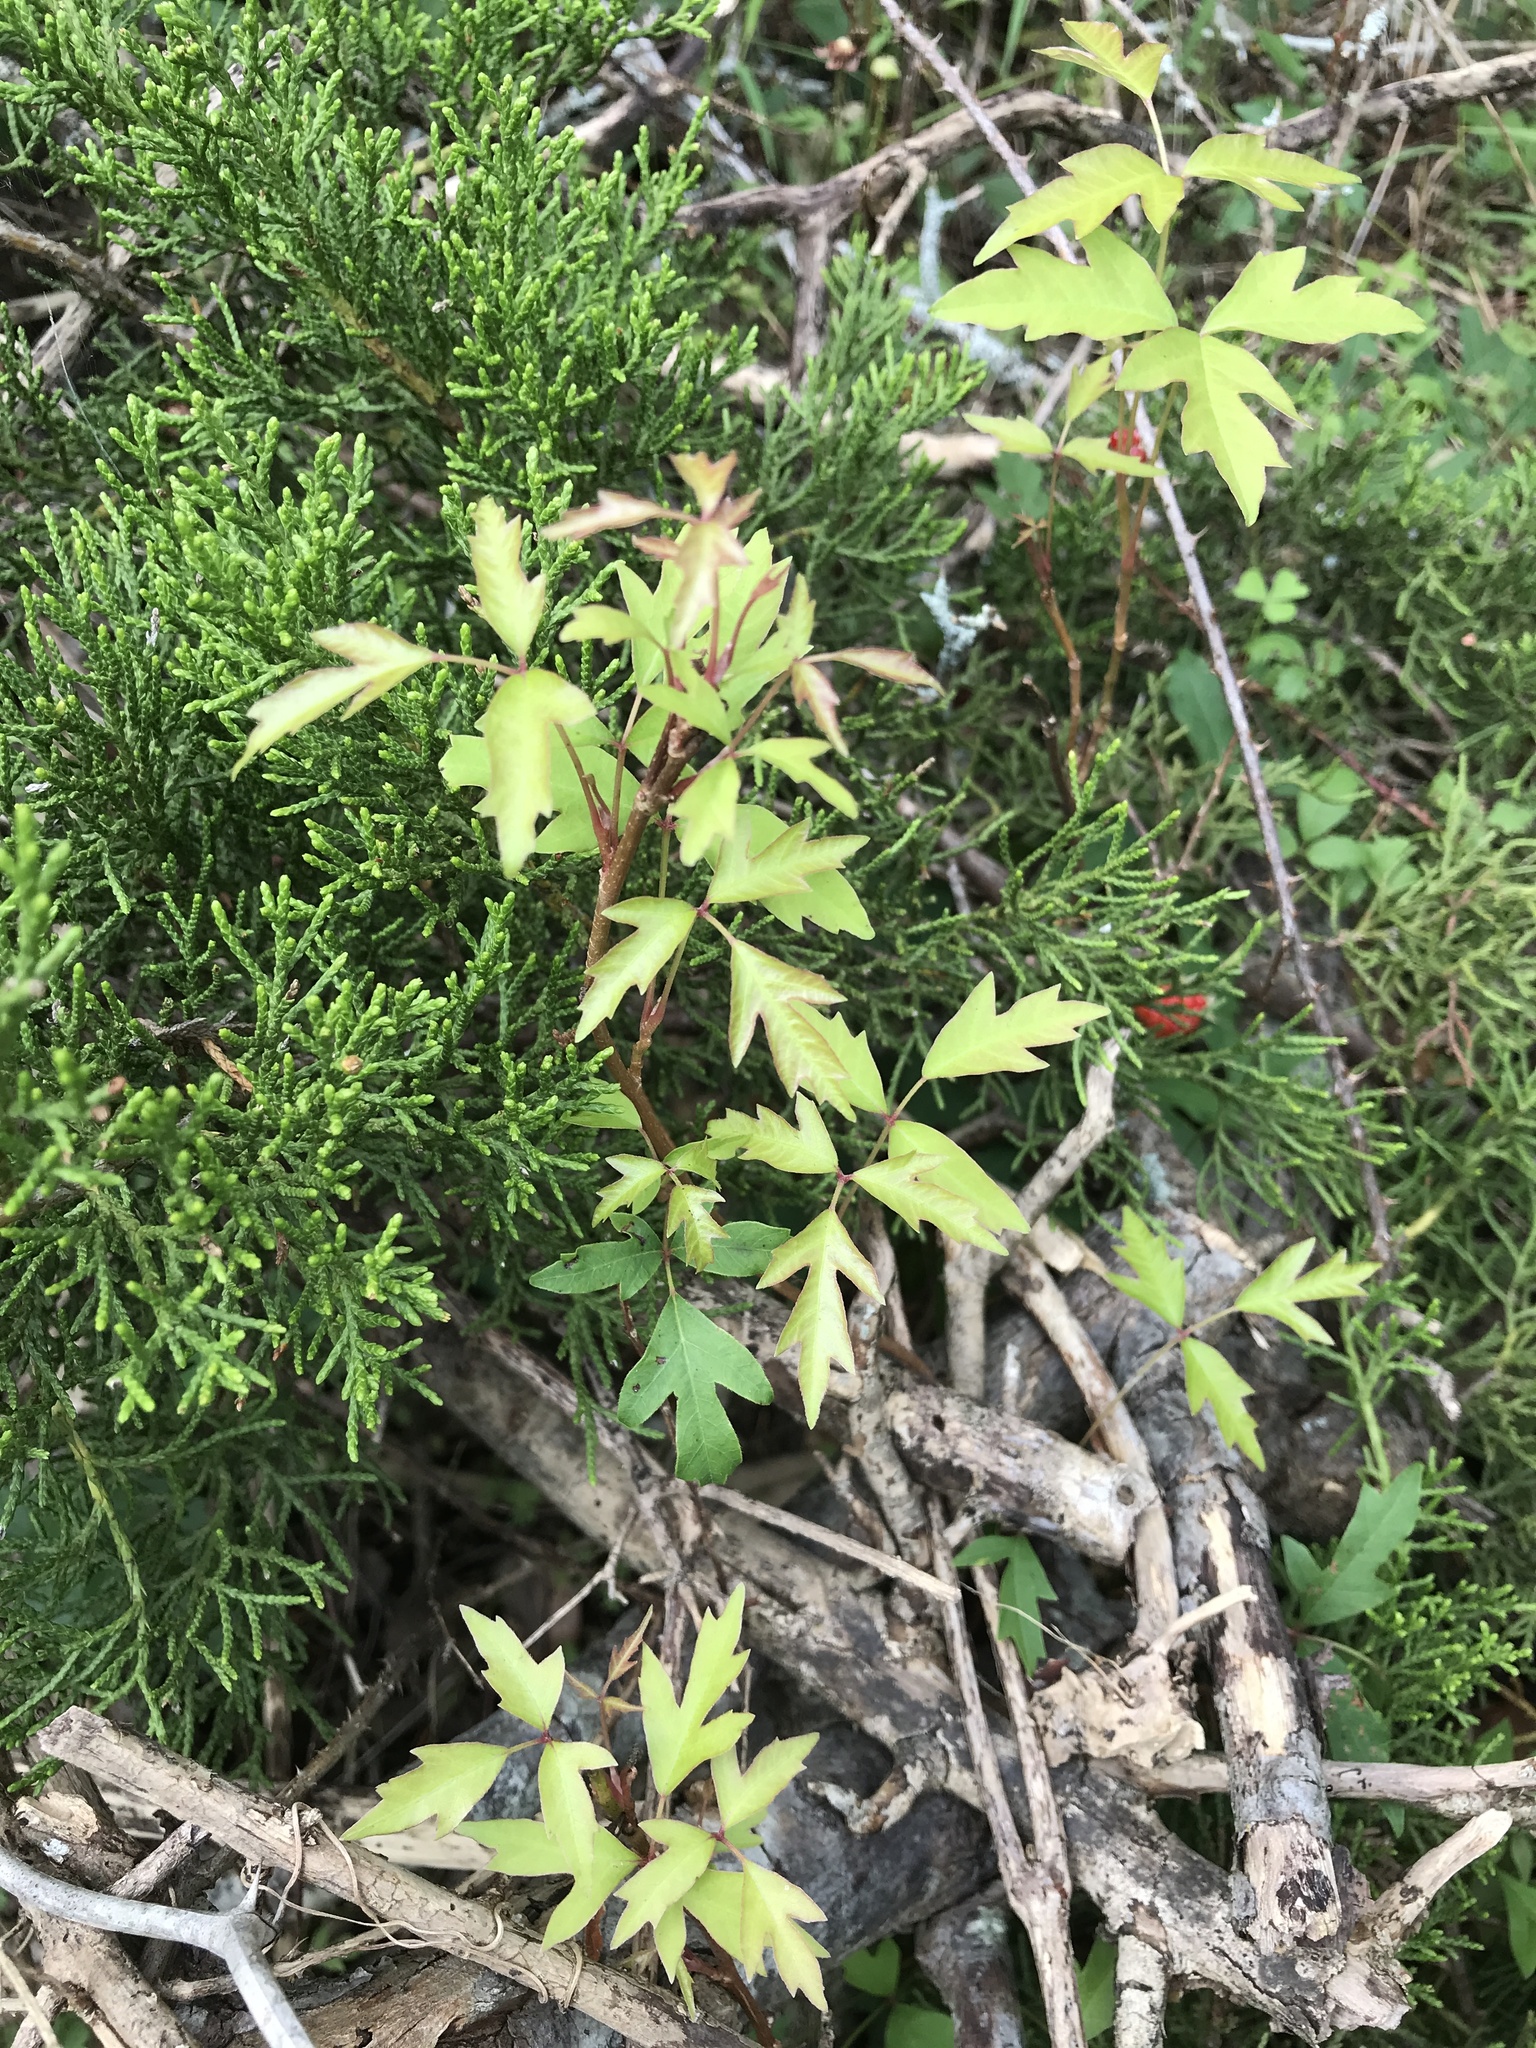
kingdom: Plantae
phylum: Tracheophyta
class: Magnoliopsida
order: Sapindales
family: Anacardiaceae
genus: Toxicodendron
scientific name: Toxicodendron radicans
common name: Poison ivy
